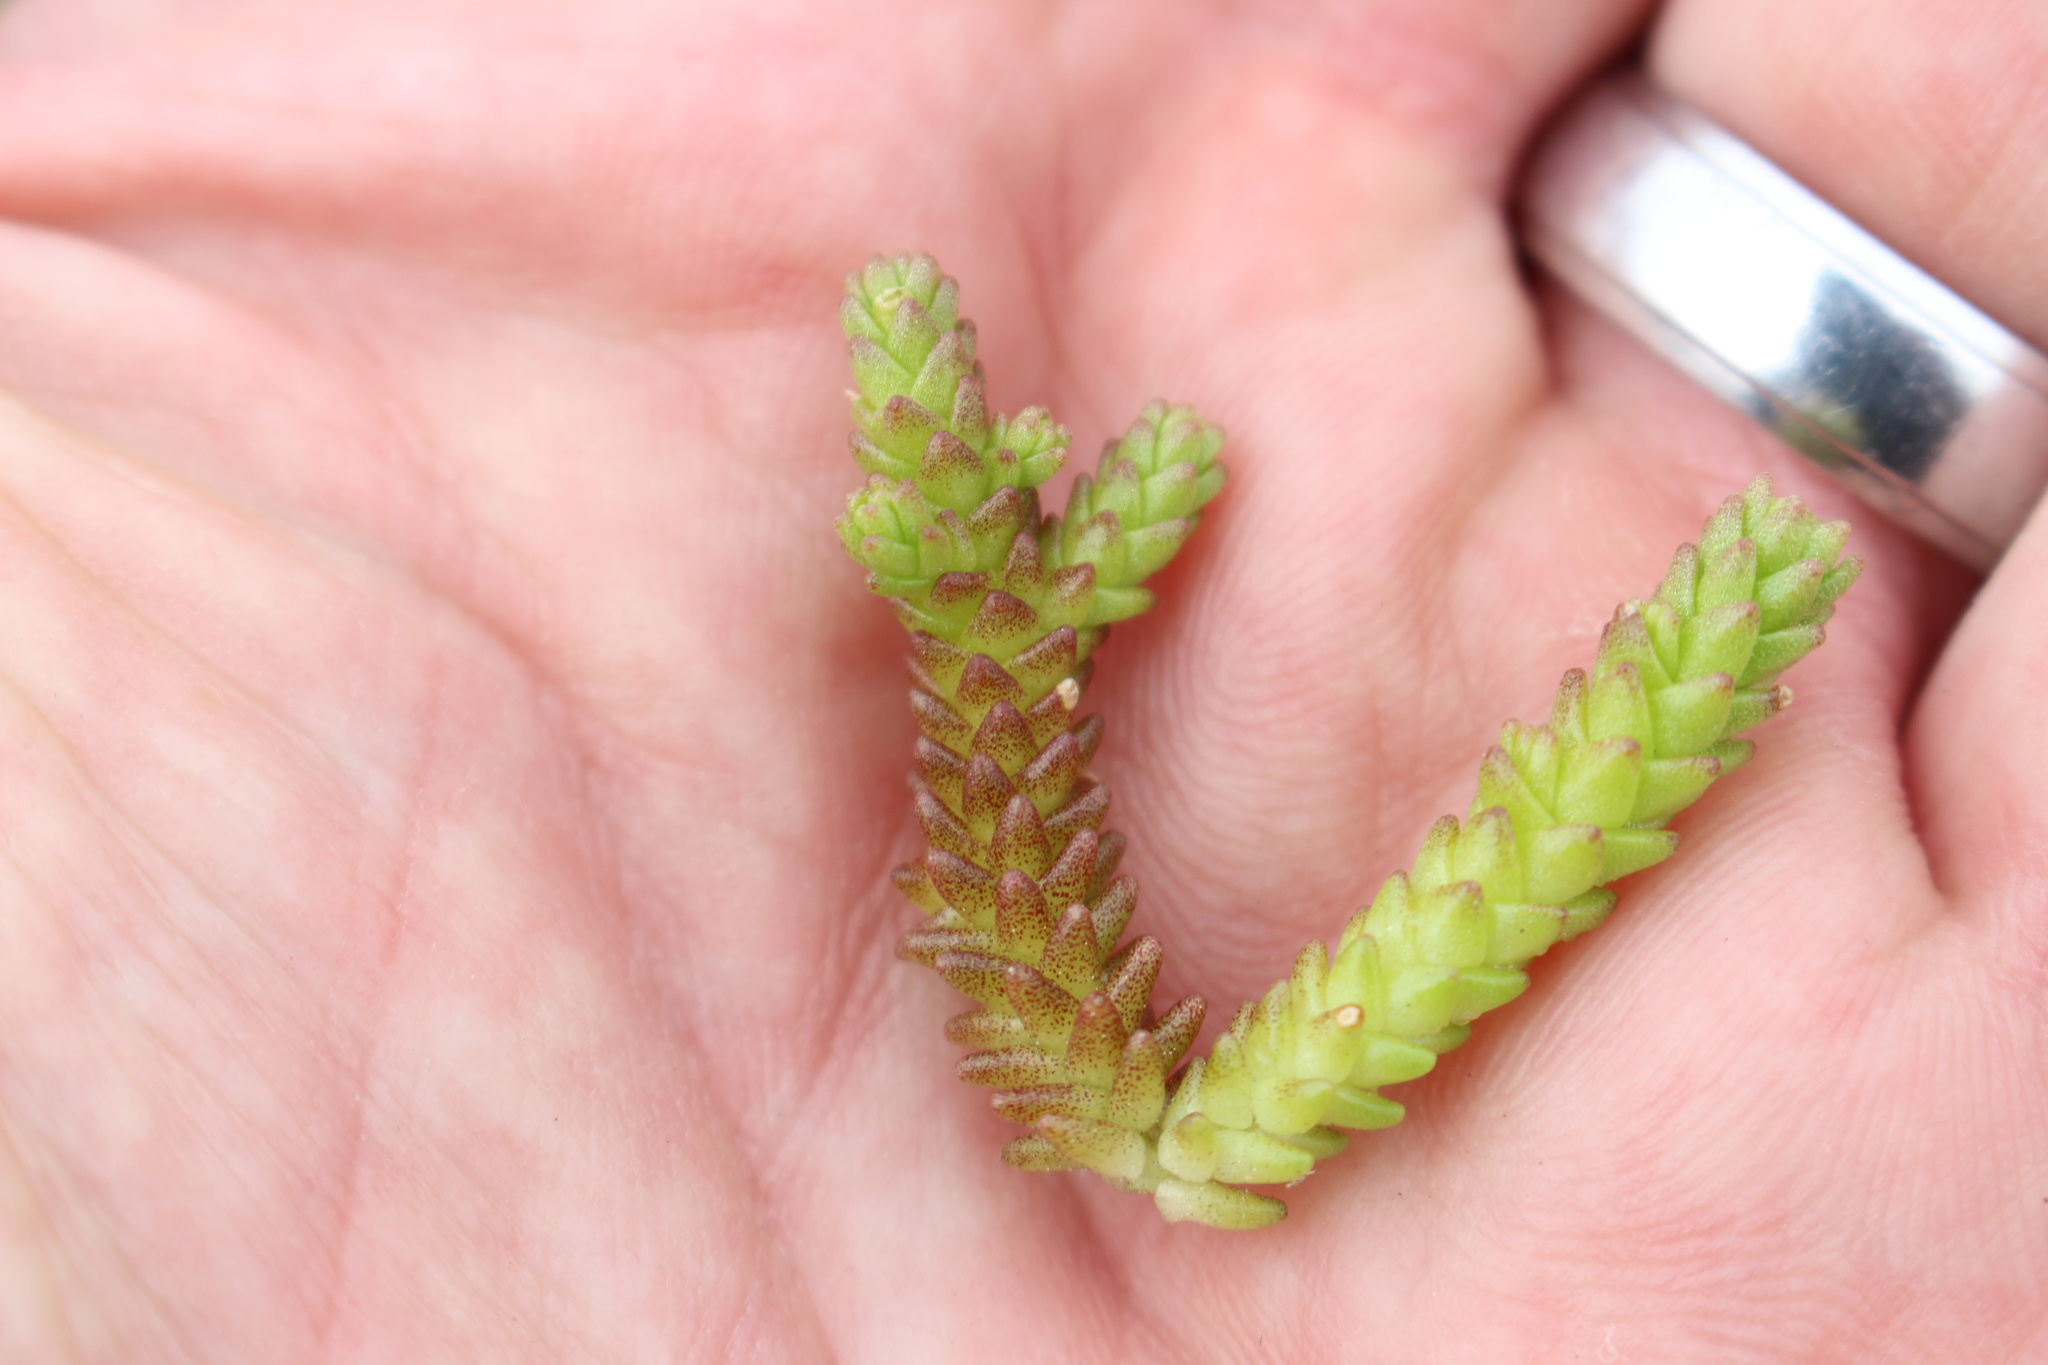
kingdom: Plantae
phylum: Tracheophyta
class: Magnoliopsida
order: Saxifragales
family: Crassulaceae
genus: Sedum
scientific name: Sedum acre
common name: Biting stonecrop
